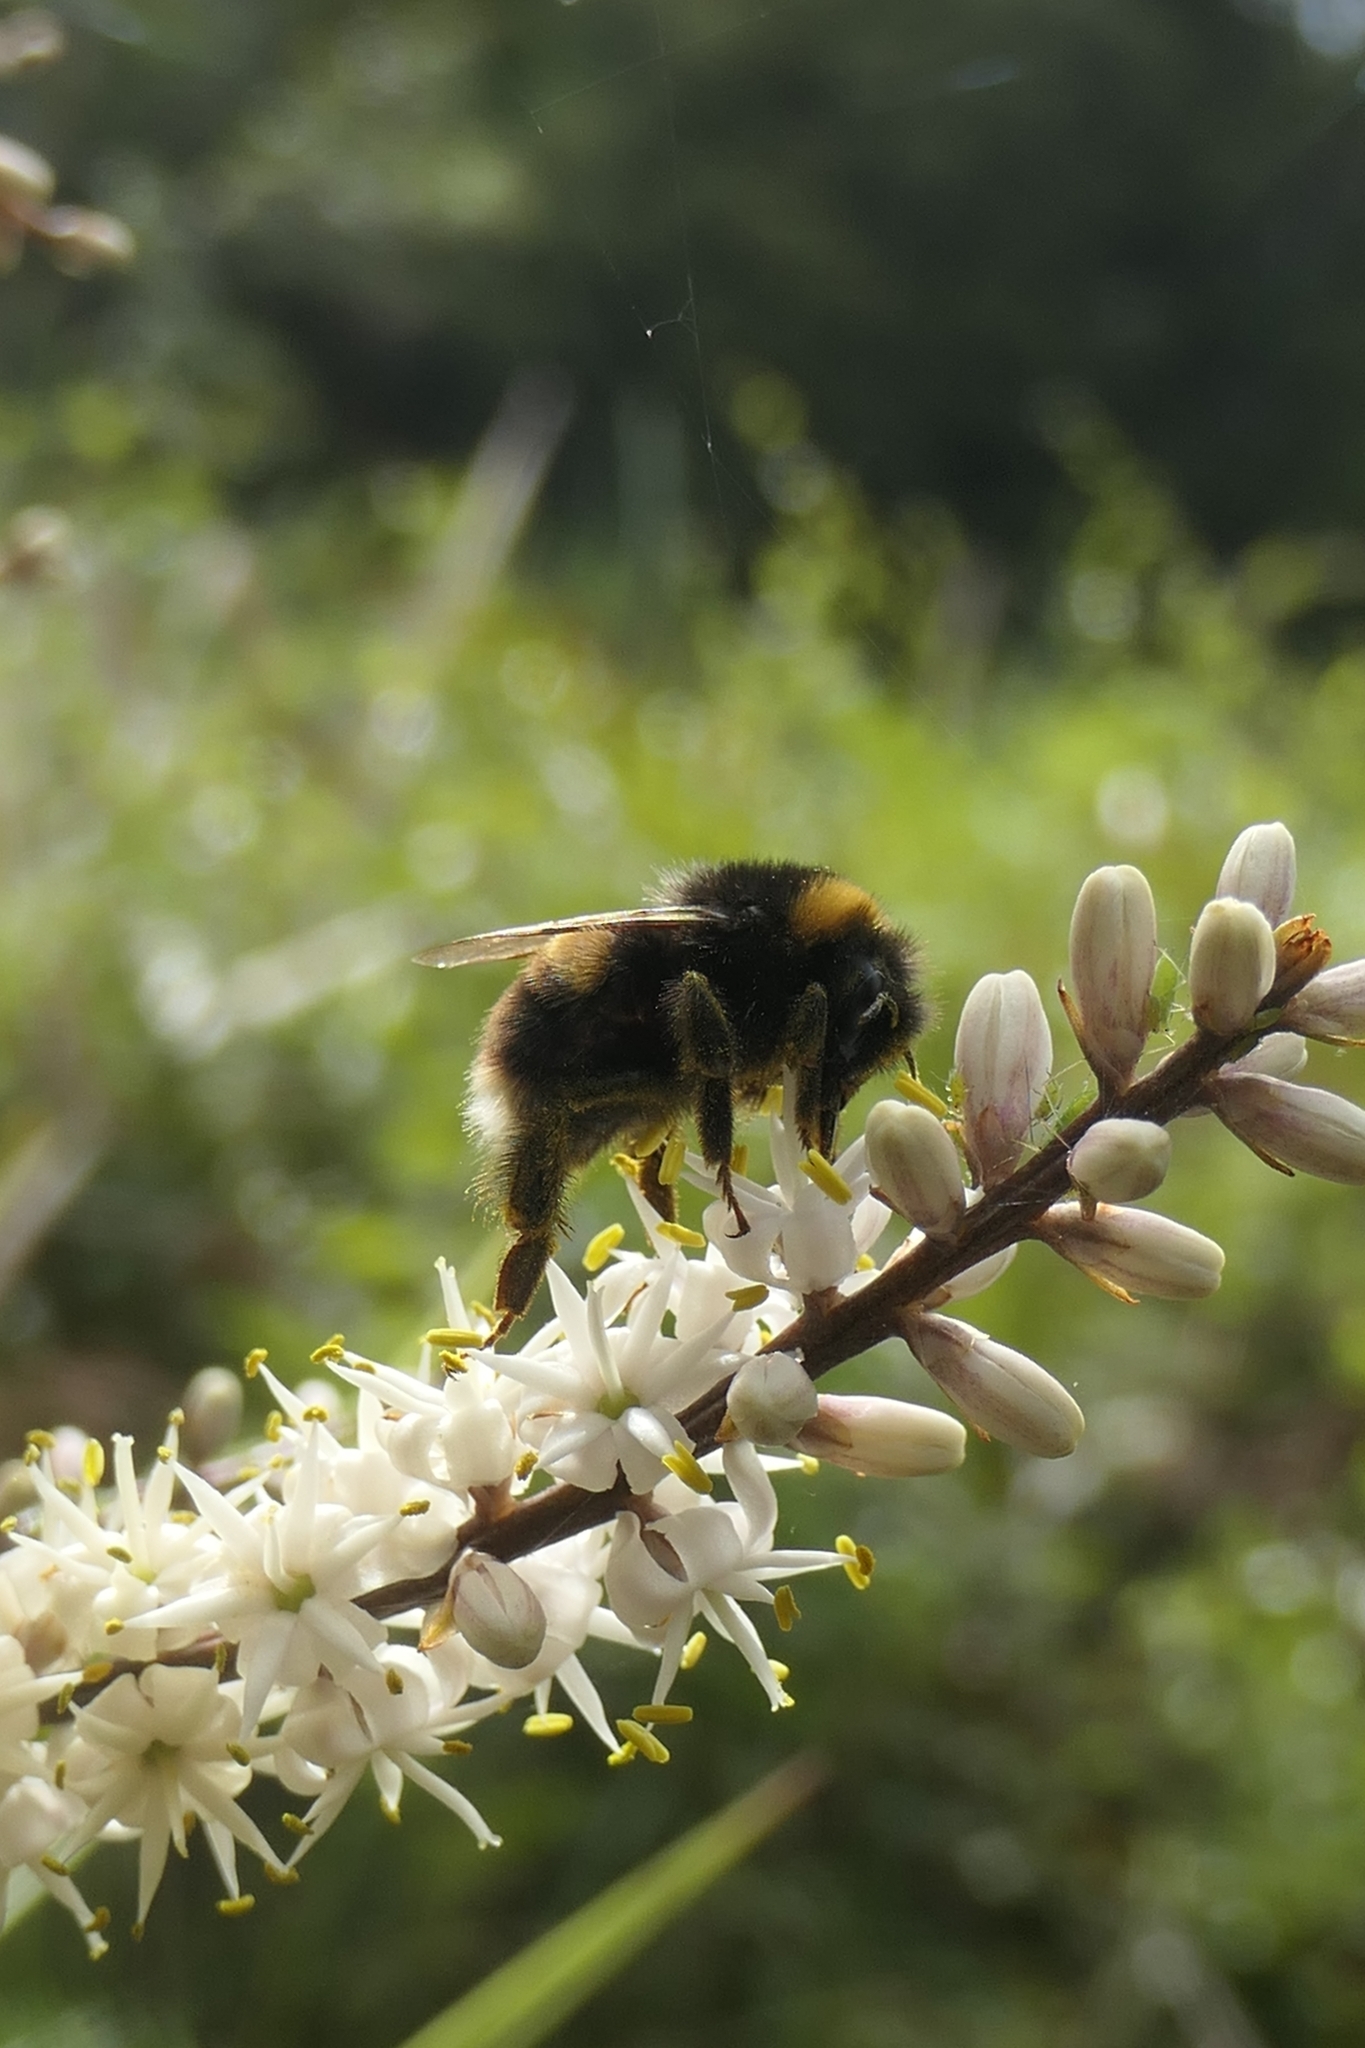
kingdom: Animalia
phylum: Arthropoda
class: Insecta
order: Hymenoptera
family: Apidae
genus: Bombus
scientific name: Bombus terrestris
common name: Buff-tailed bumblebee
